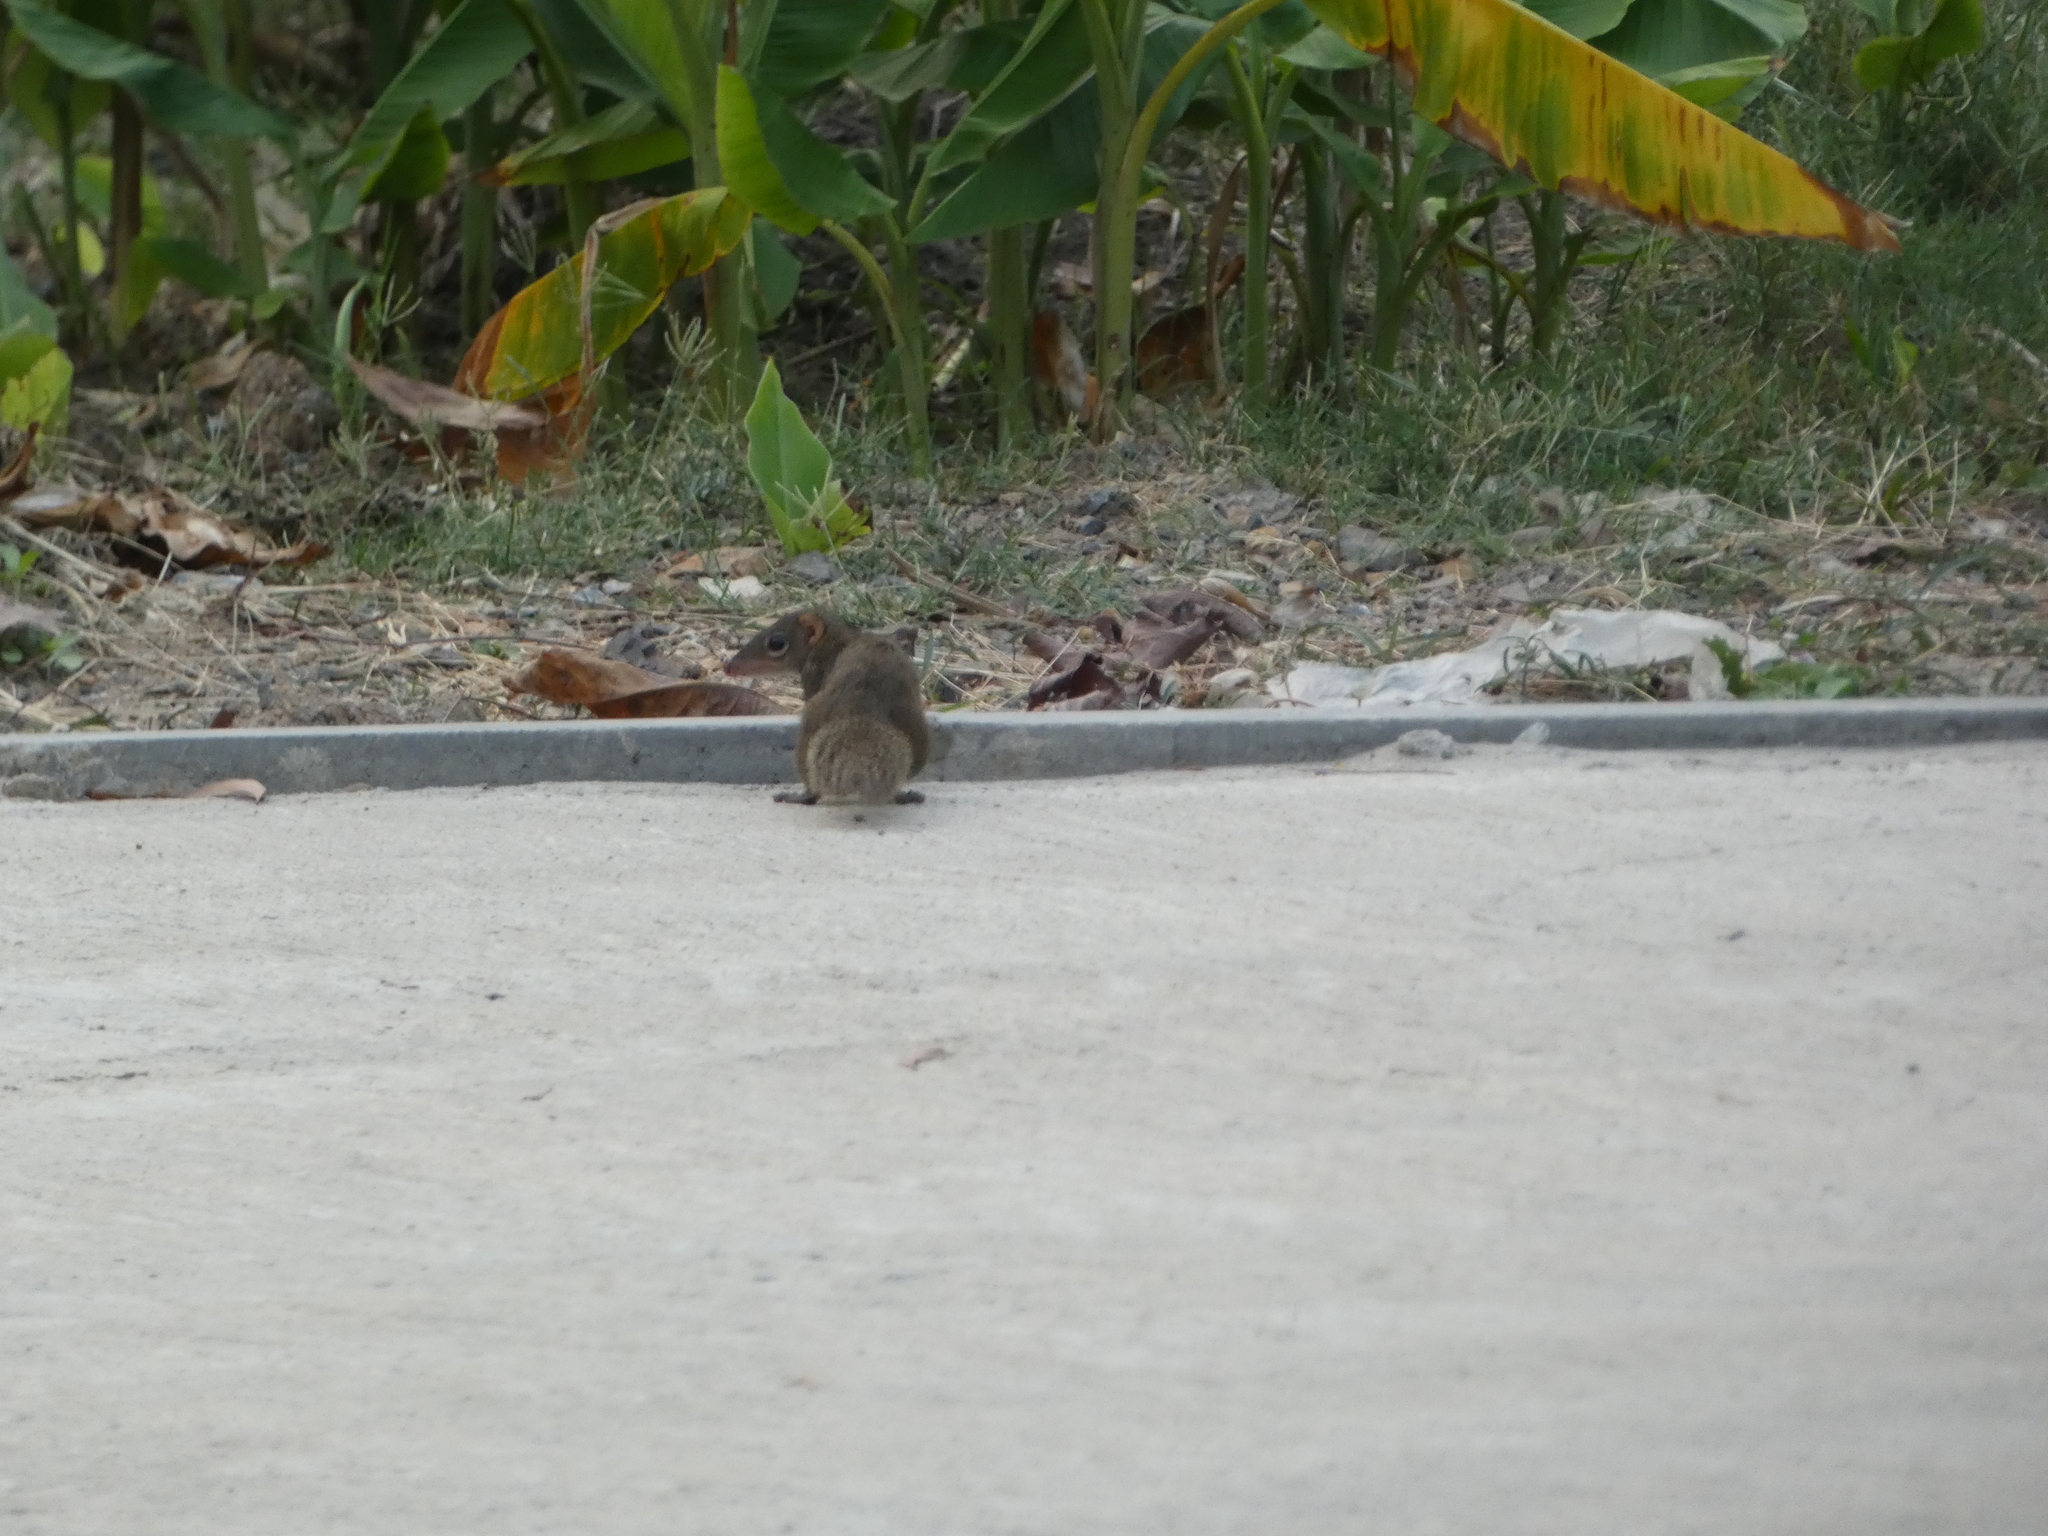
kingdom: Animalia
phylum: Chordata
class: Mammalia
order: Scandentia
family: Tupaiidae
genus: Tupaia
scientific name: Tupaia belangeri
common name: Northern treeshrew
